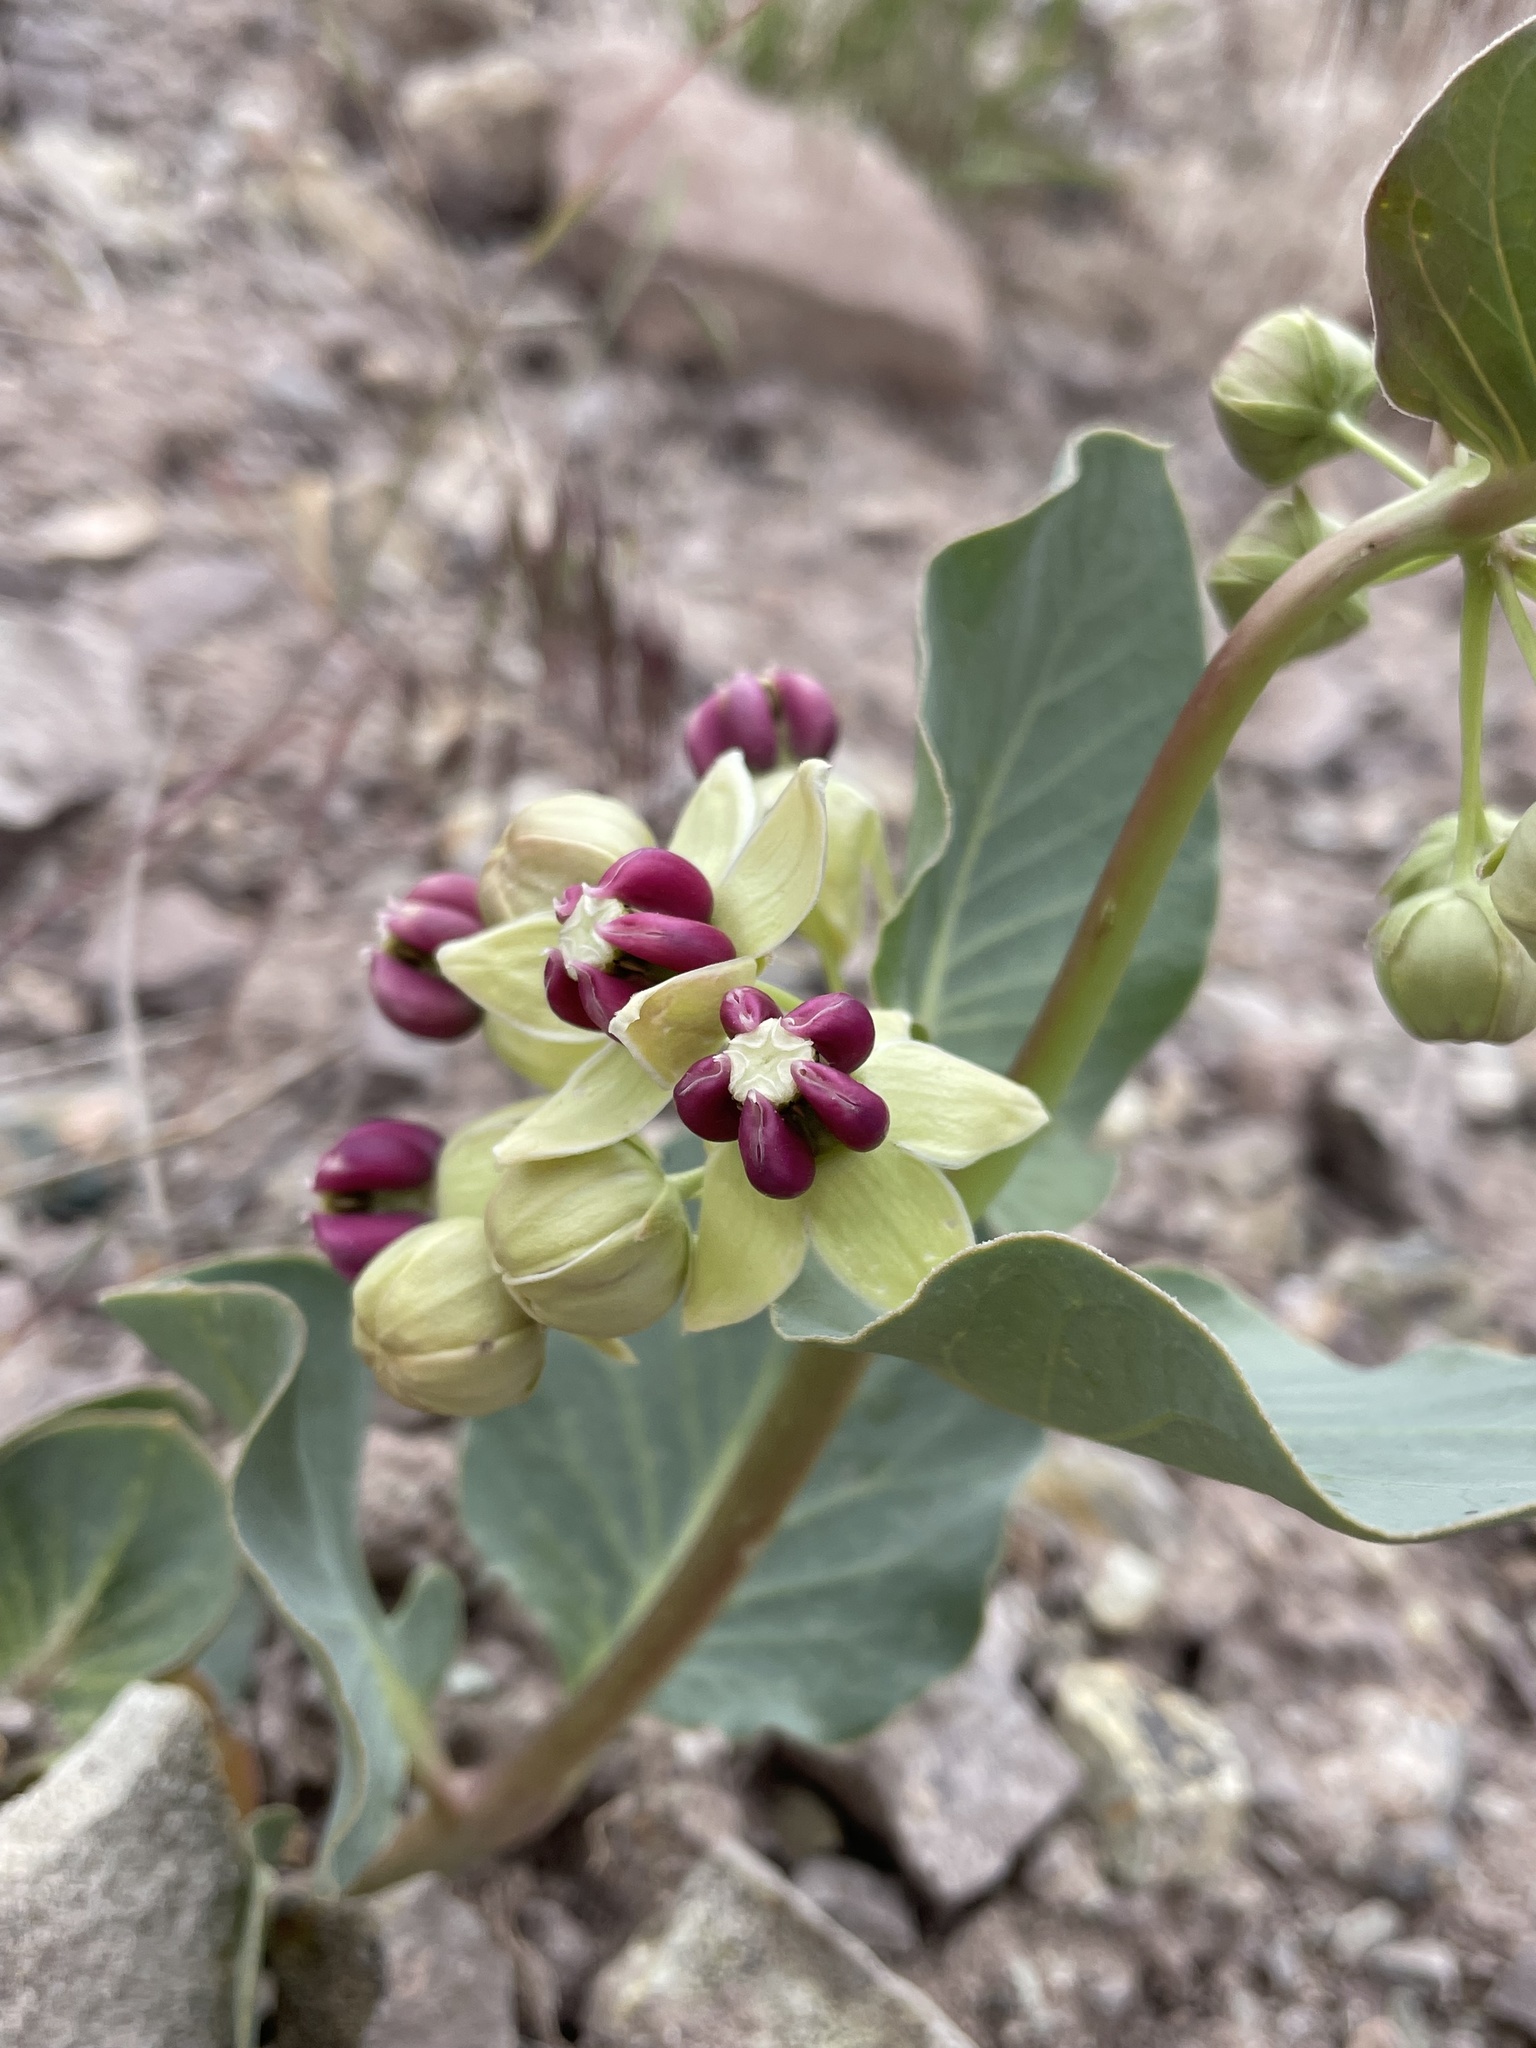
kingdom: Plantae
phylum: Tracheophyta
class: Magnoliopsida
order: Gentianales
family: Apocynaceae
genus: Asclepias
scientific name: Asclepias cryptoceras
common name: Humboldt mountains milkweed
